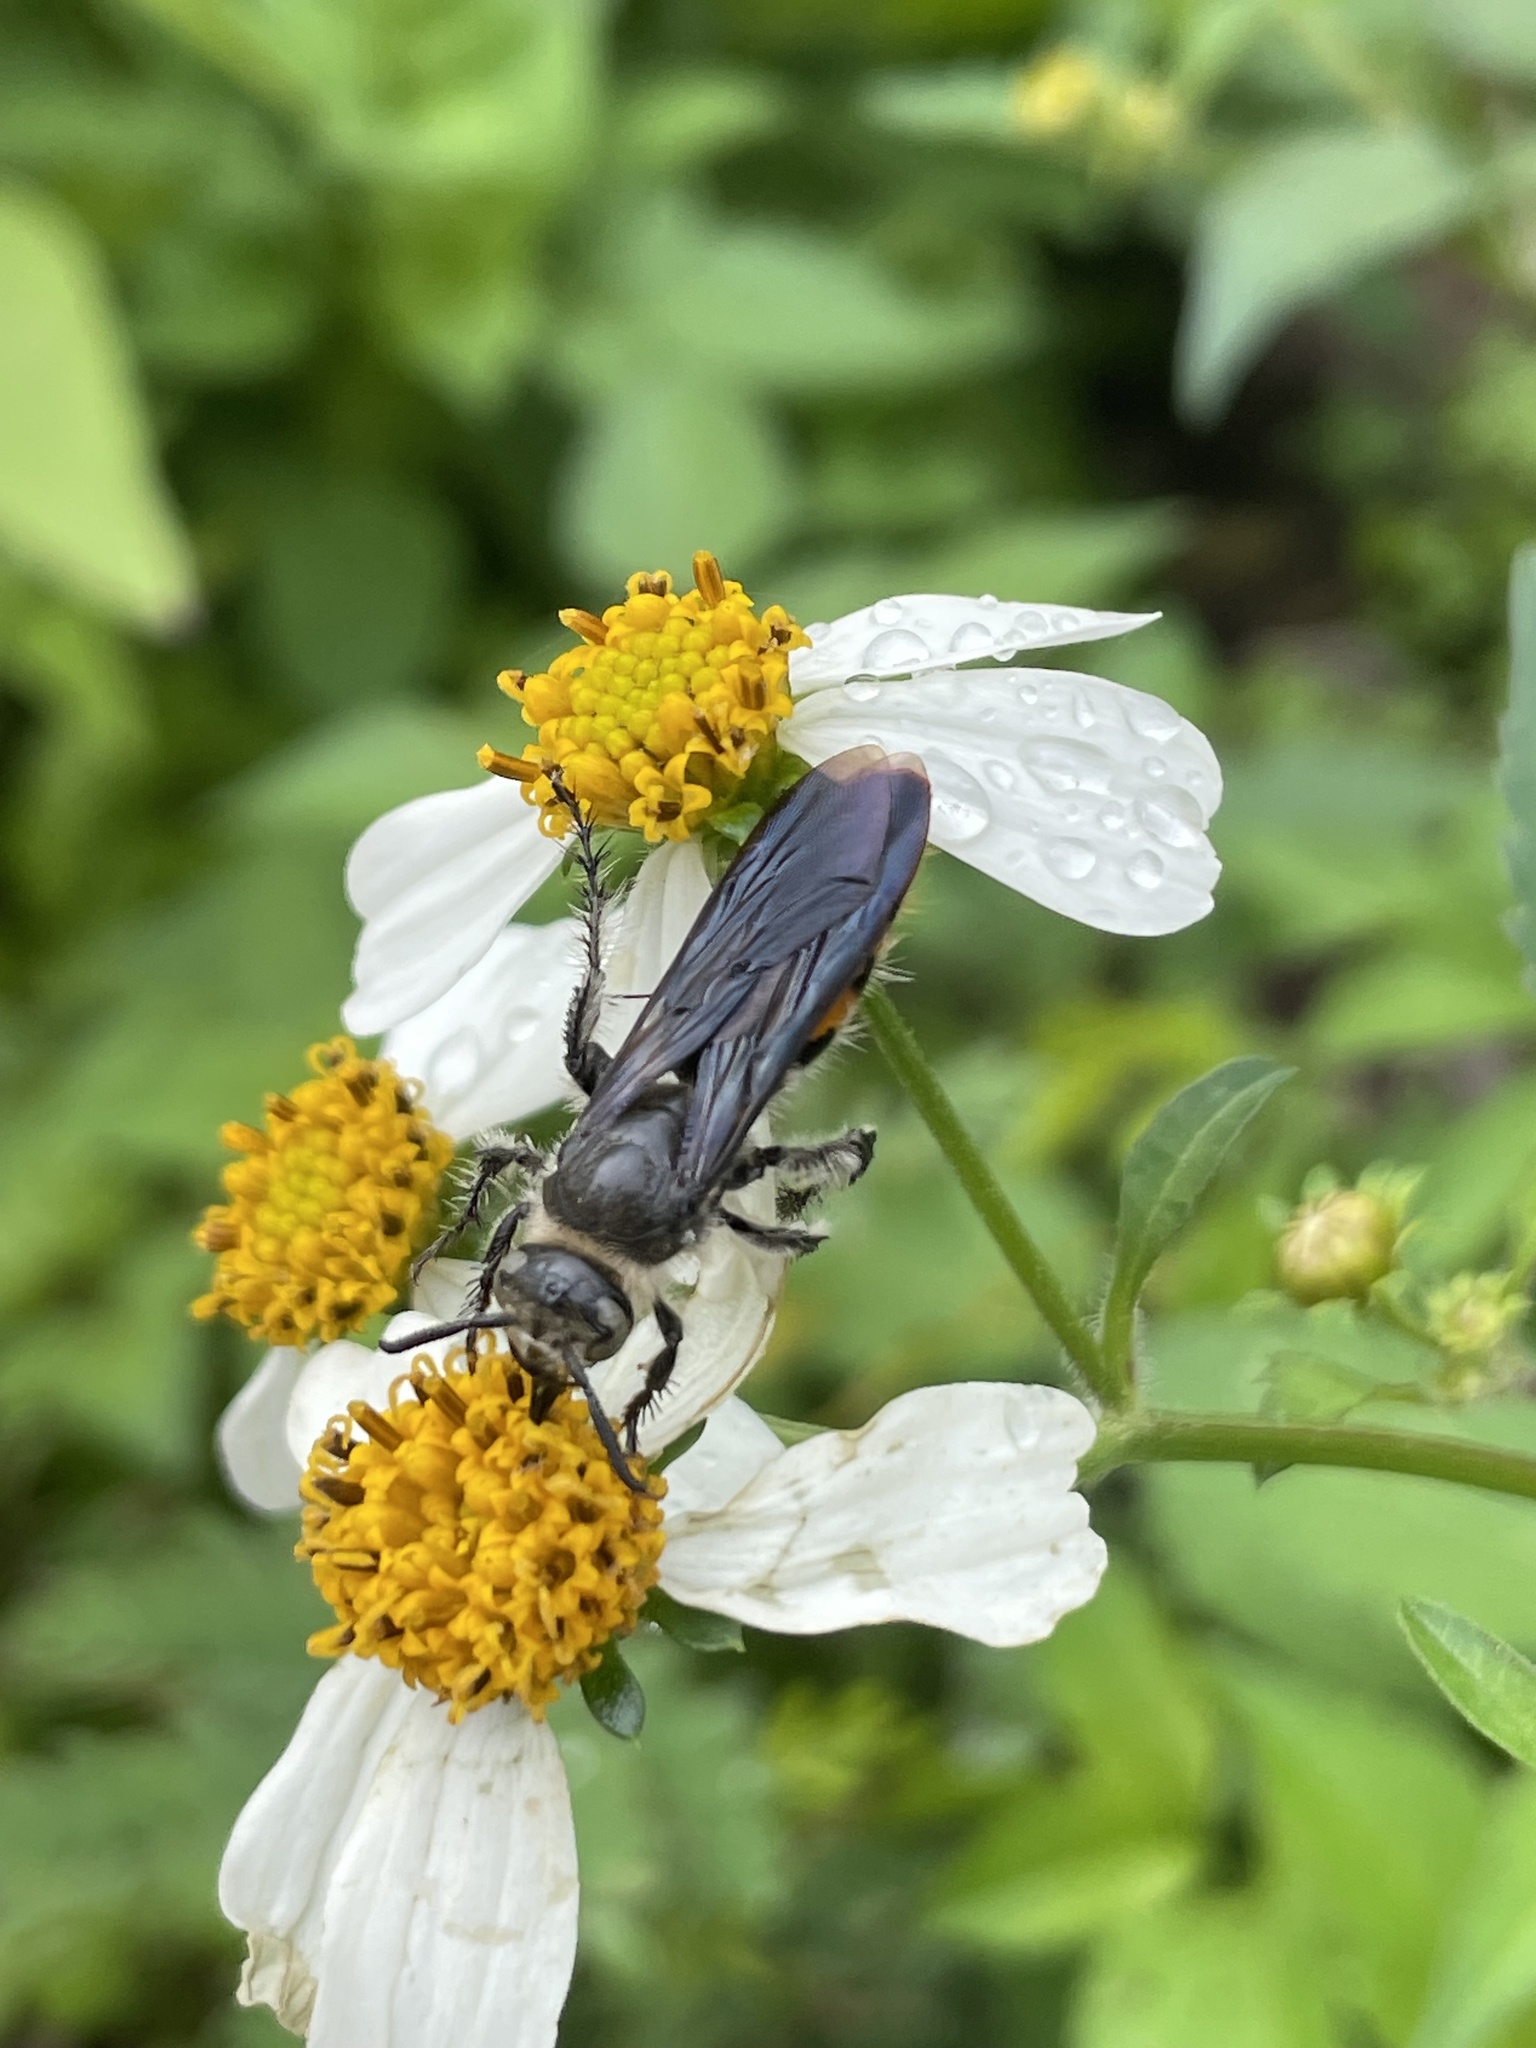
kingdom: Animalia
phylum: Arthropoda
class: Insecta
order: Hymenoptera
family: Scoliidae
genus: Dielis
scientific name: Dielis tolteca
